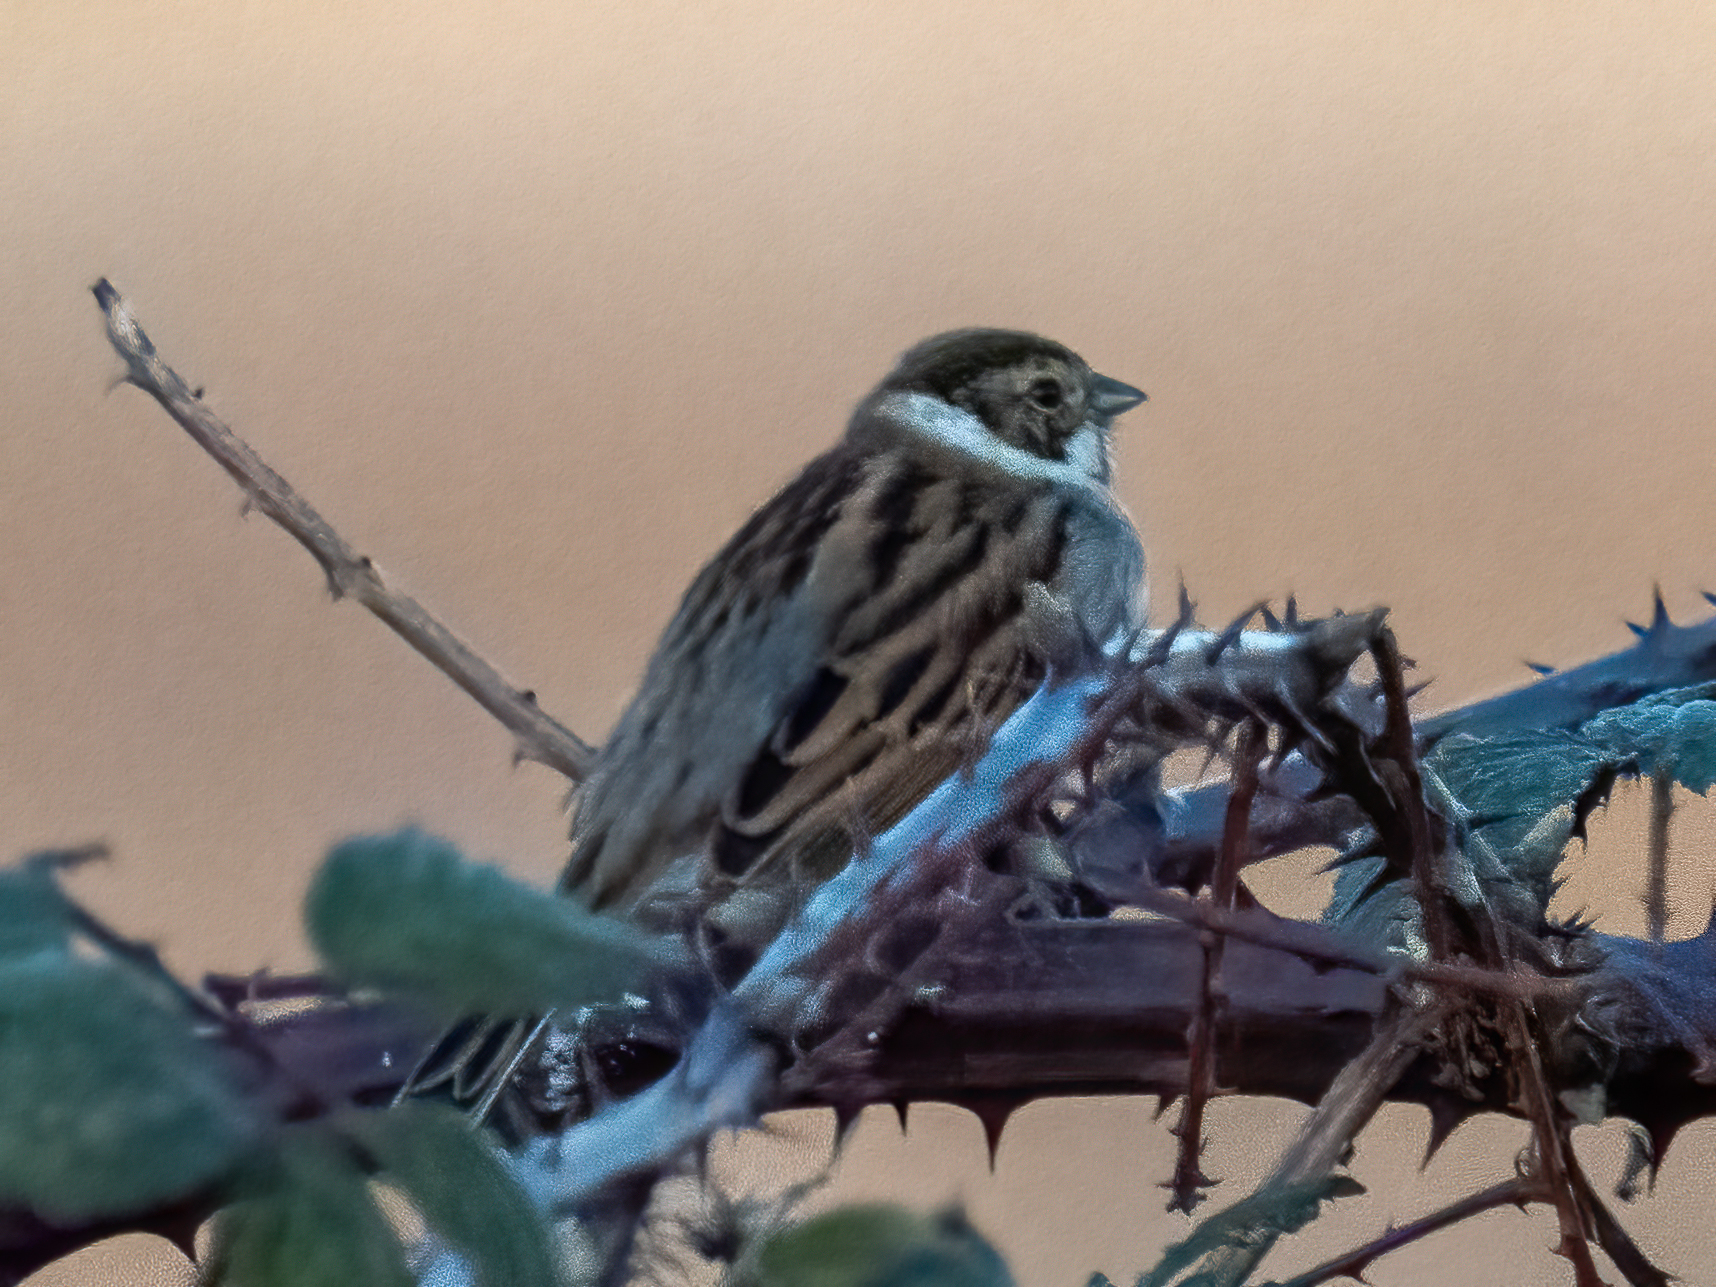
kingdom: Animalia
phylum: Chordata
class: Aves
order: Passeriformes
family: Emberizidae
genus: Emberiza
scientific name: Emberiza schoeniclus
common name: Reed bunting
